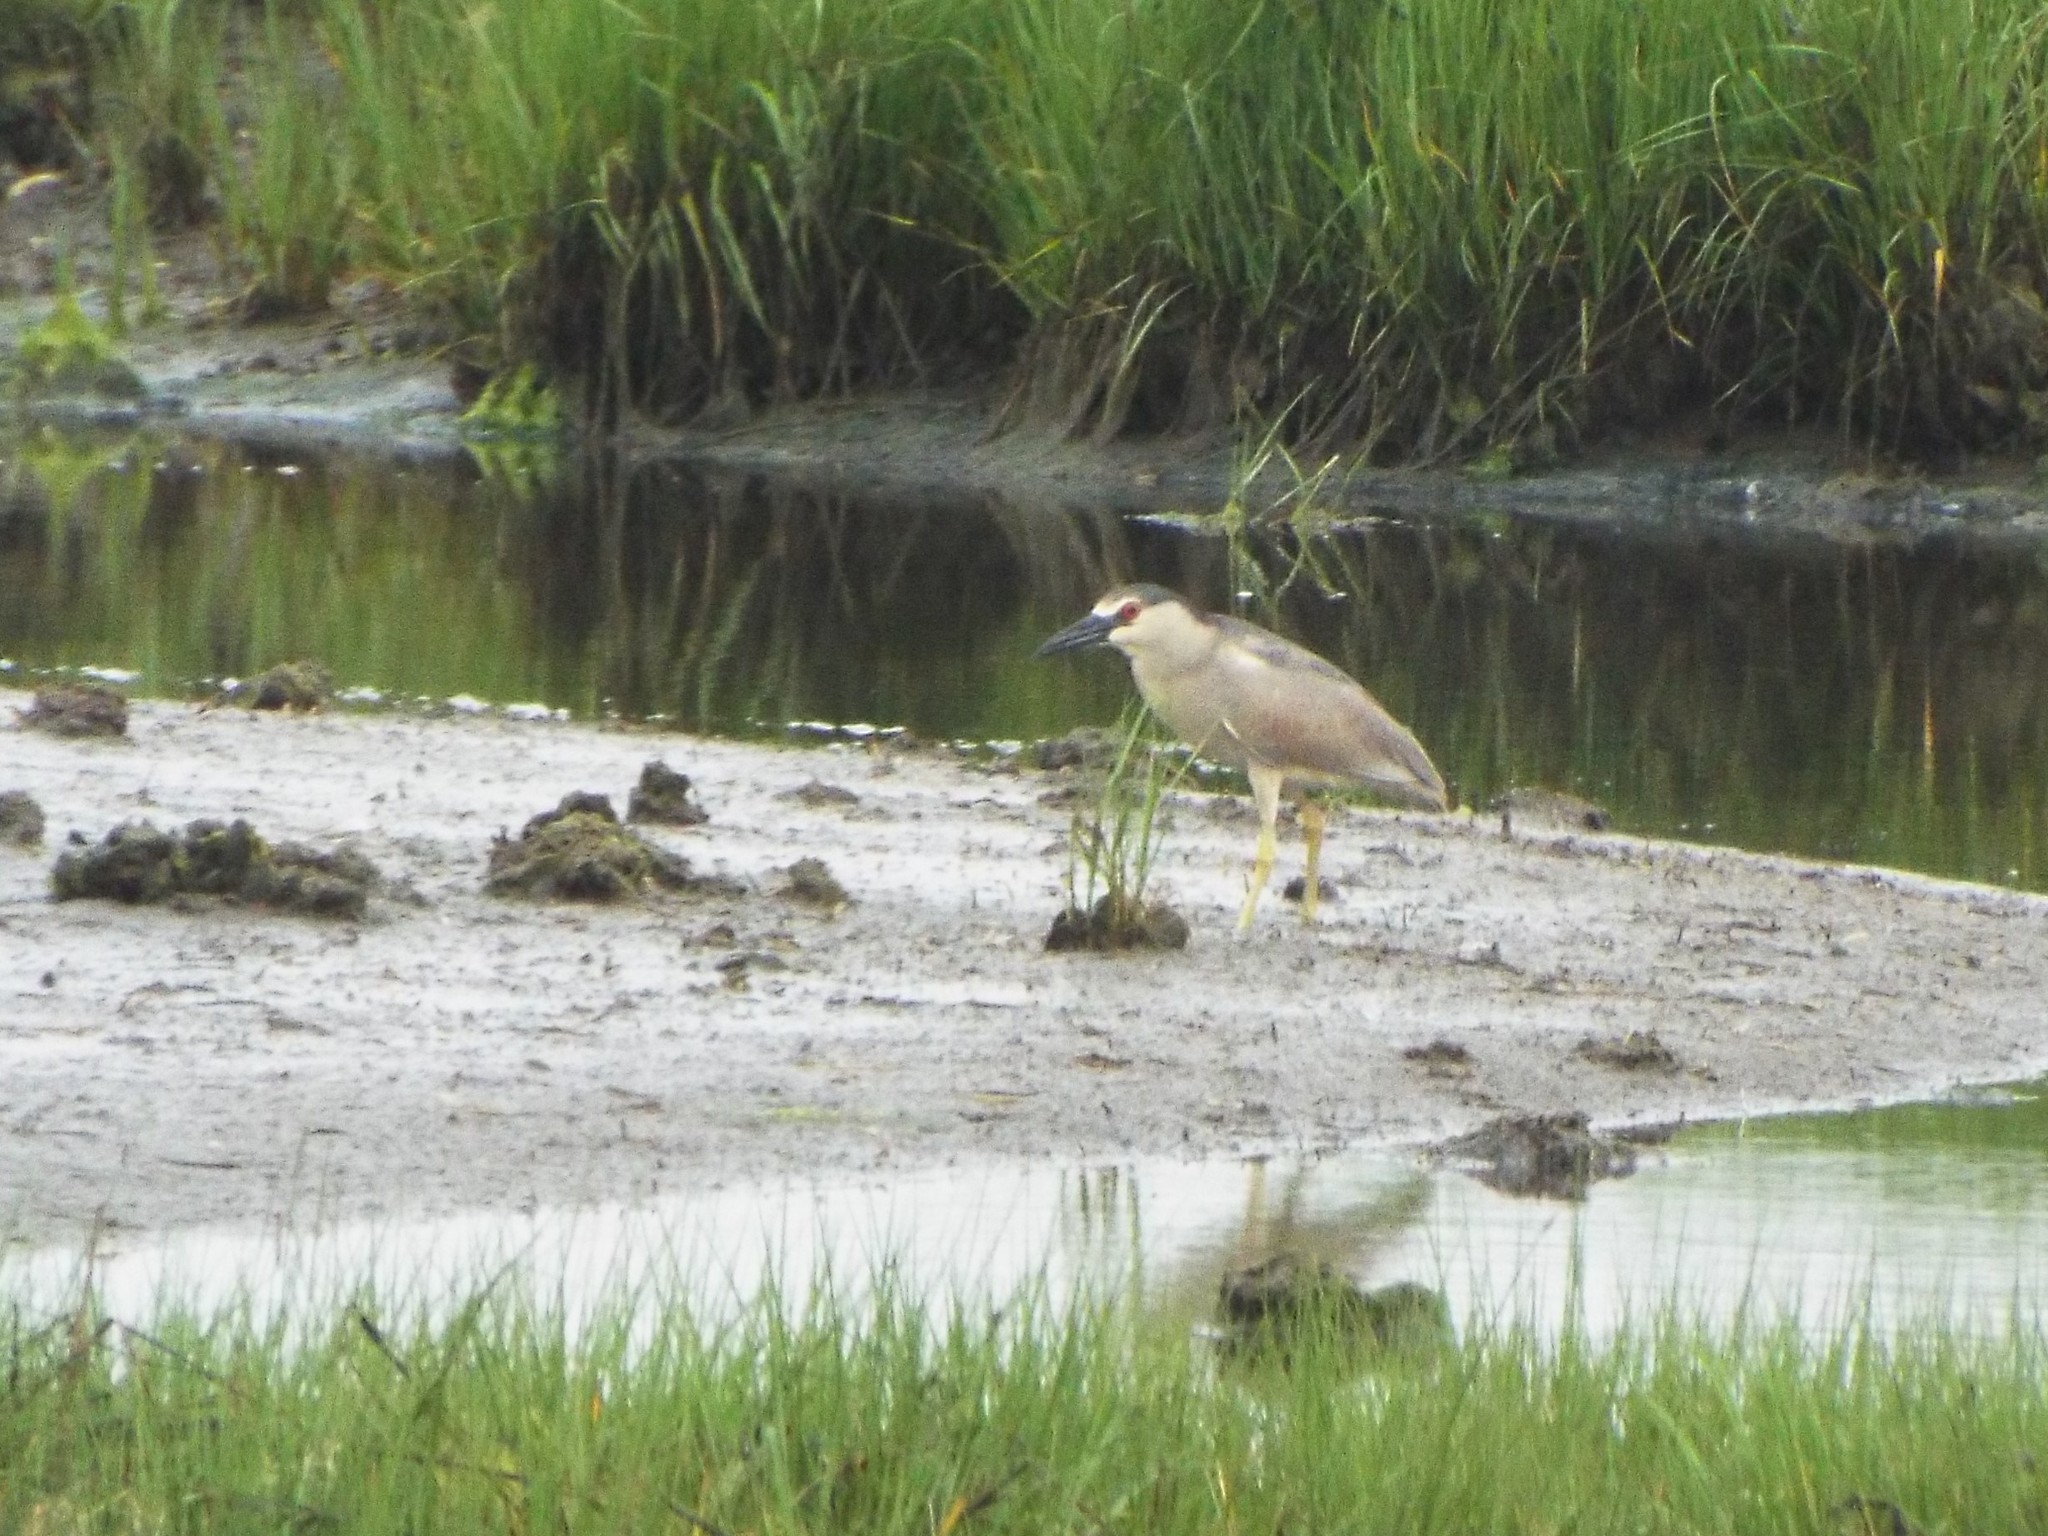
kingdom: Animalia
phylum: Chordata
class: Aves
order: Pelecaniformes
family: Ardeidae
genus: Nycticorax
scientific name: Nycticorax nycticorax
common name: Black-crowned night heron
